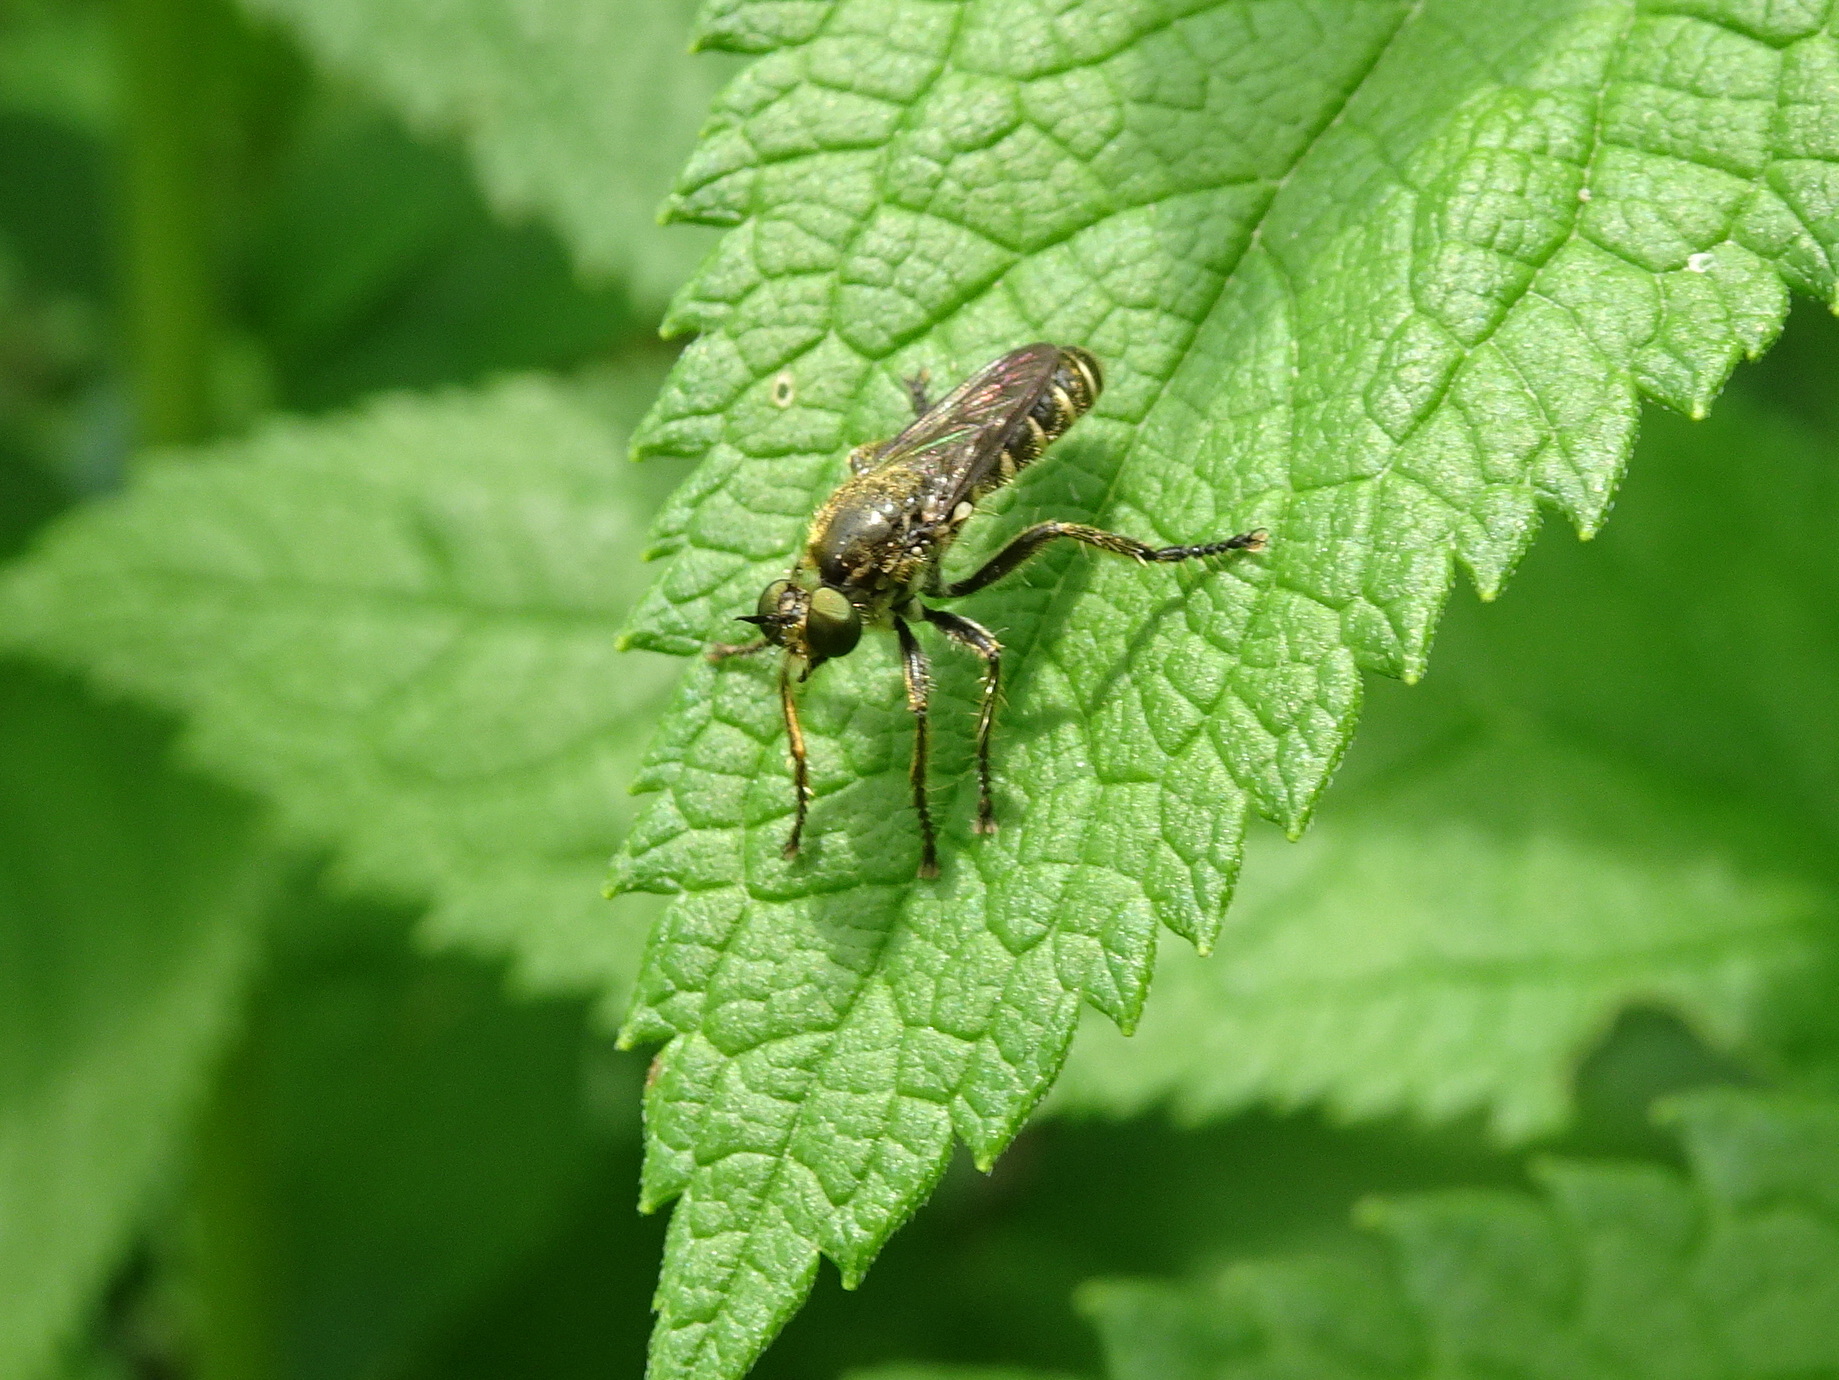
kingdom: Animalia
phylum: Arthropoda
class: Insecta
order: Diptera
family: Asilidae
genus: Zabrops
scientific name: Zabrops flavipilis
